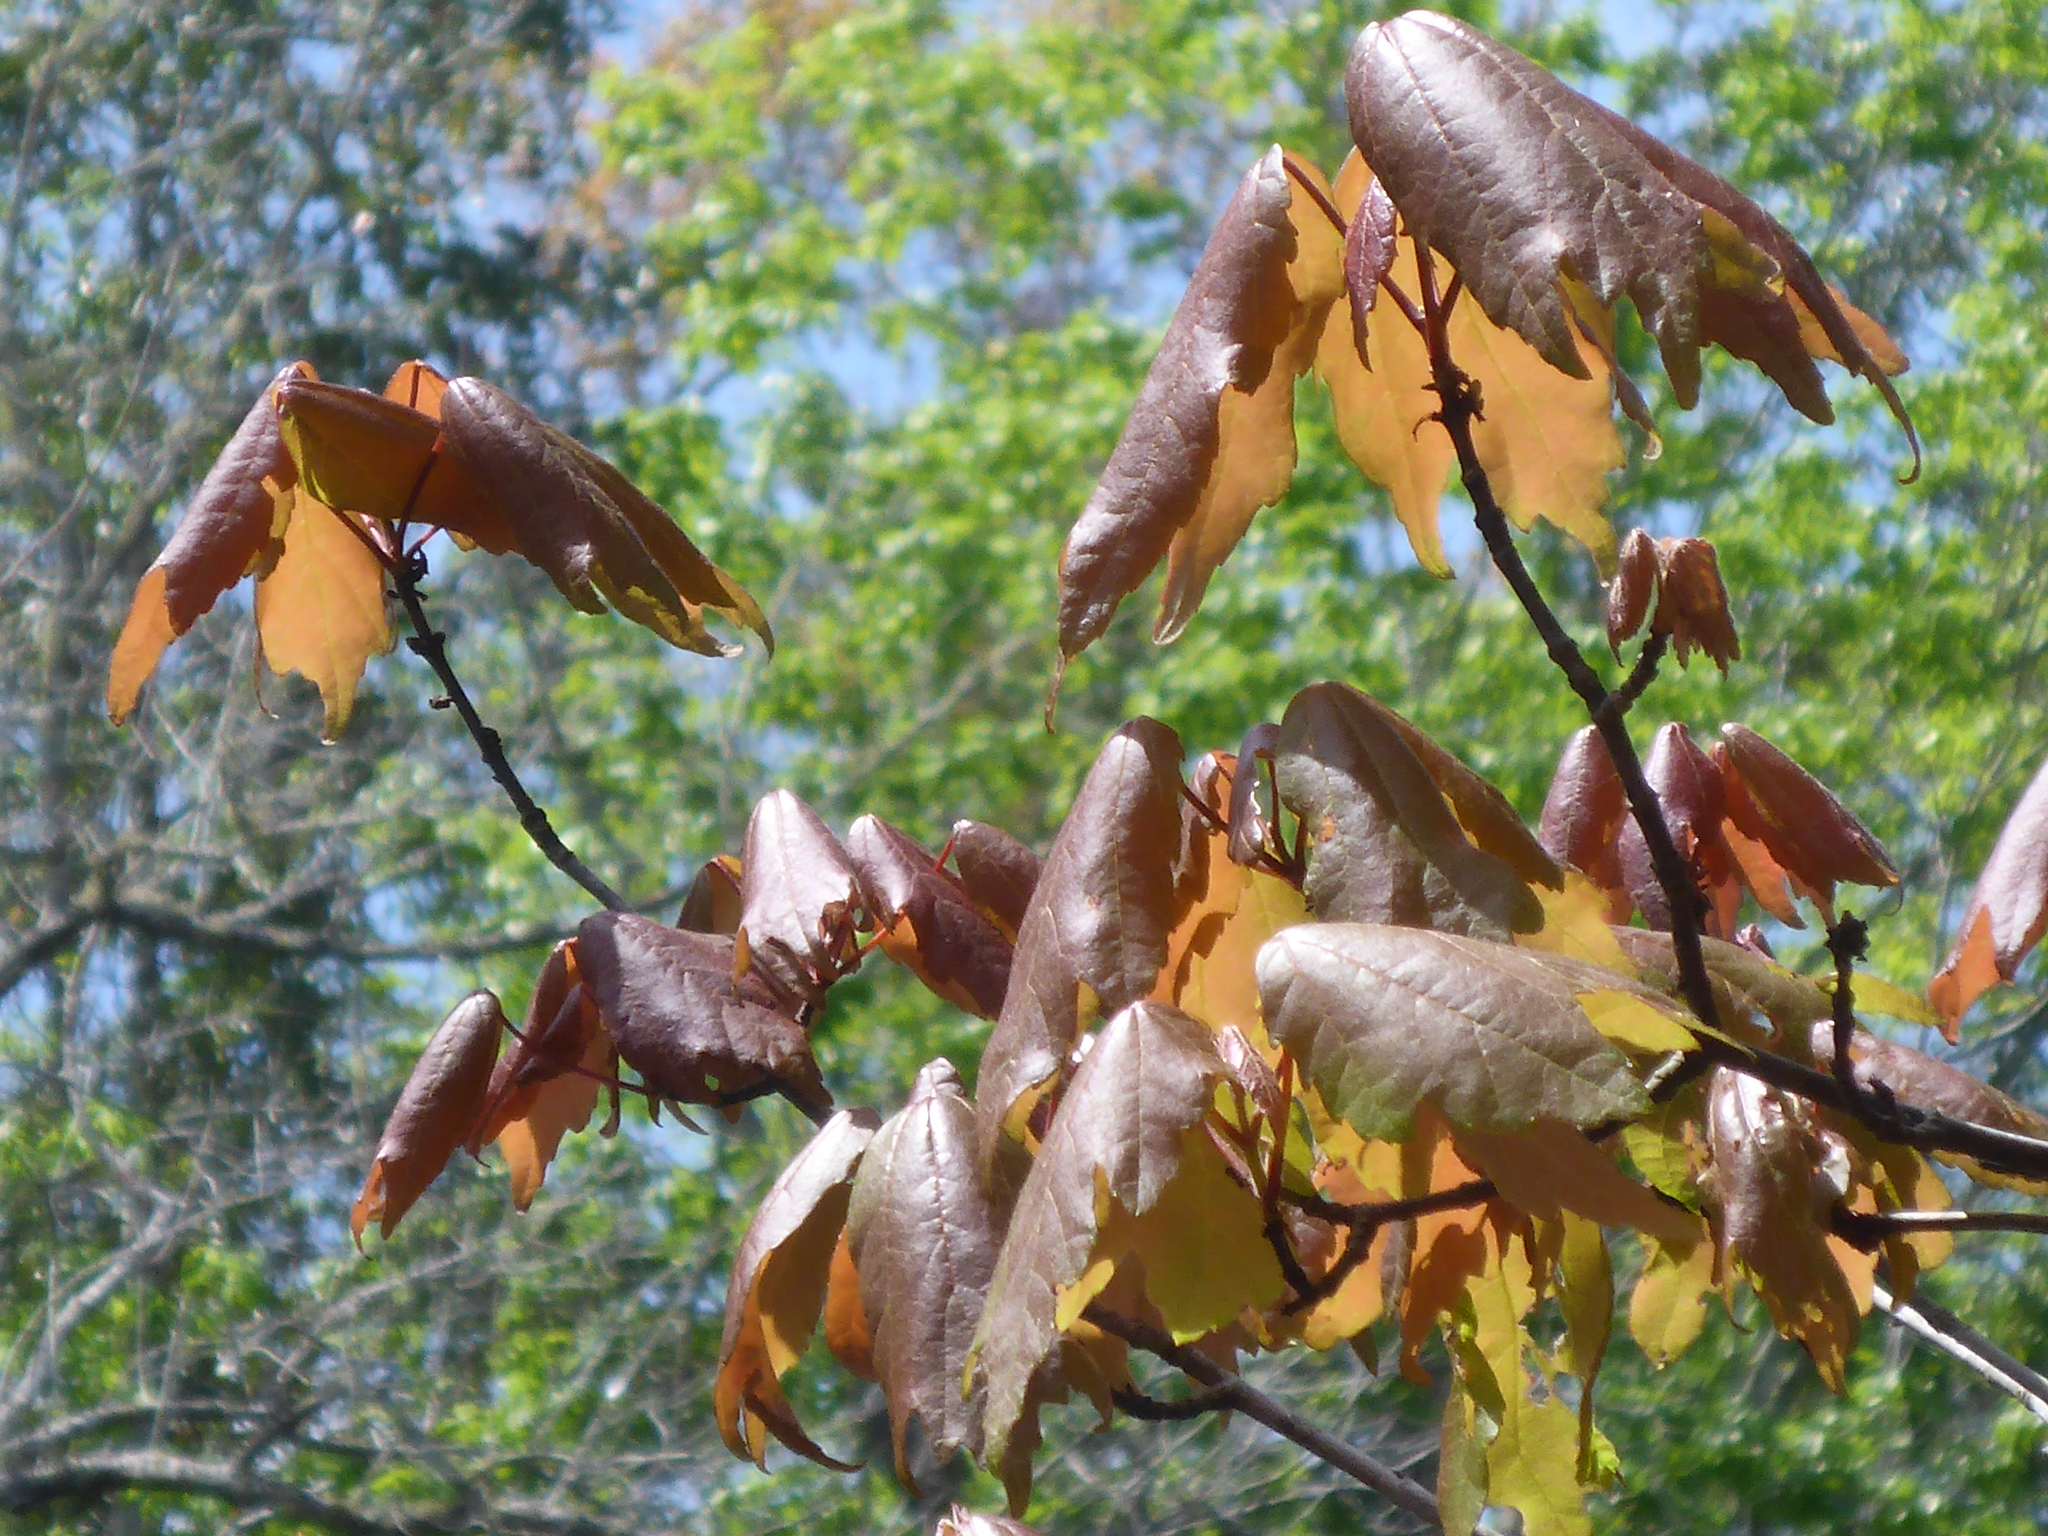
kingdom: Plantae
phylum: Tracheophyta
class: Magnoliopsida
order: Sapindales
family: Sapindaceae
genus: Acer
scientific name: Acer rubrum
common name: Red maple
